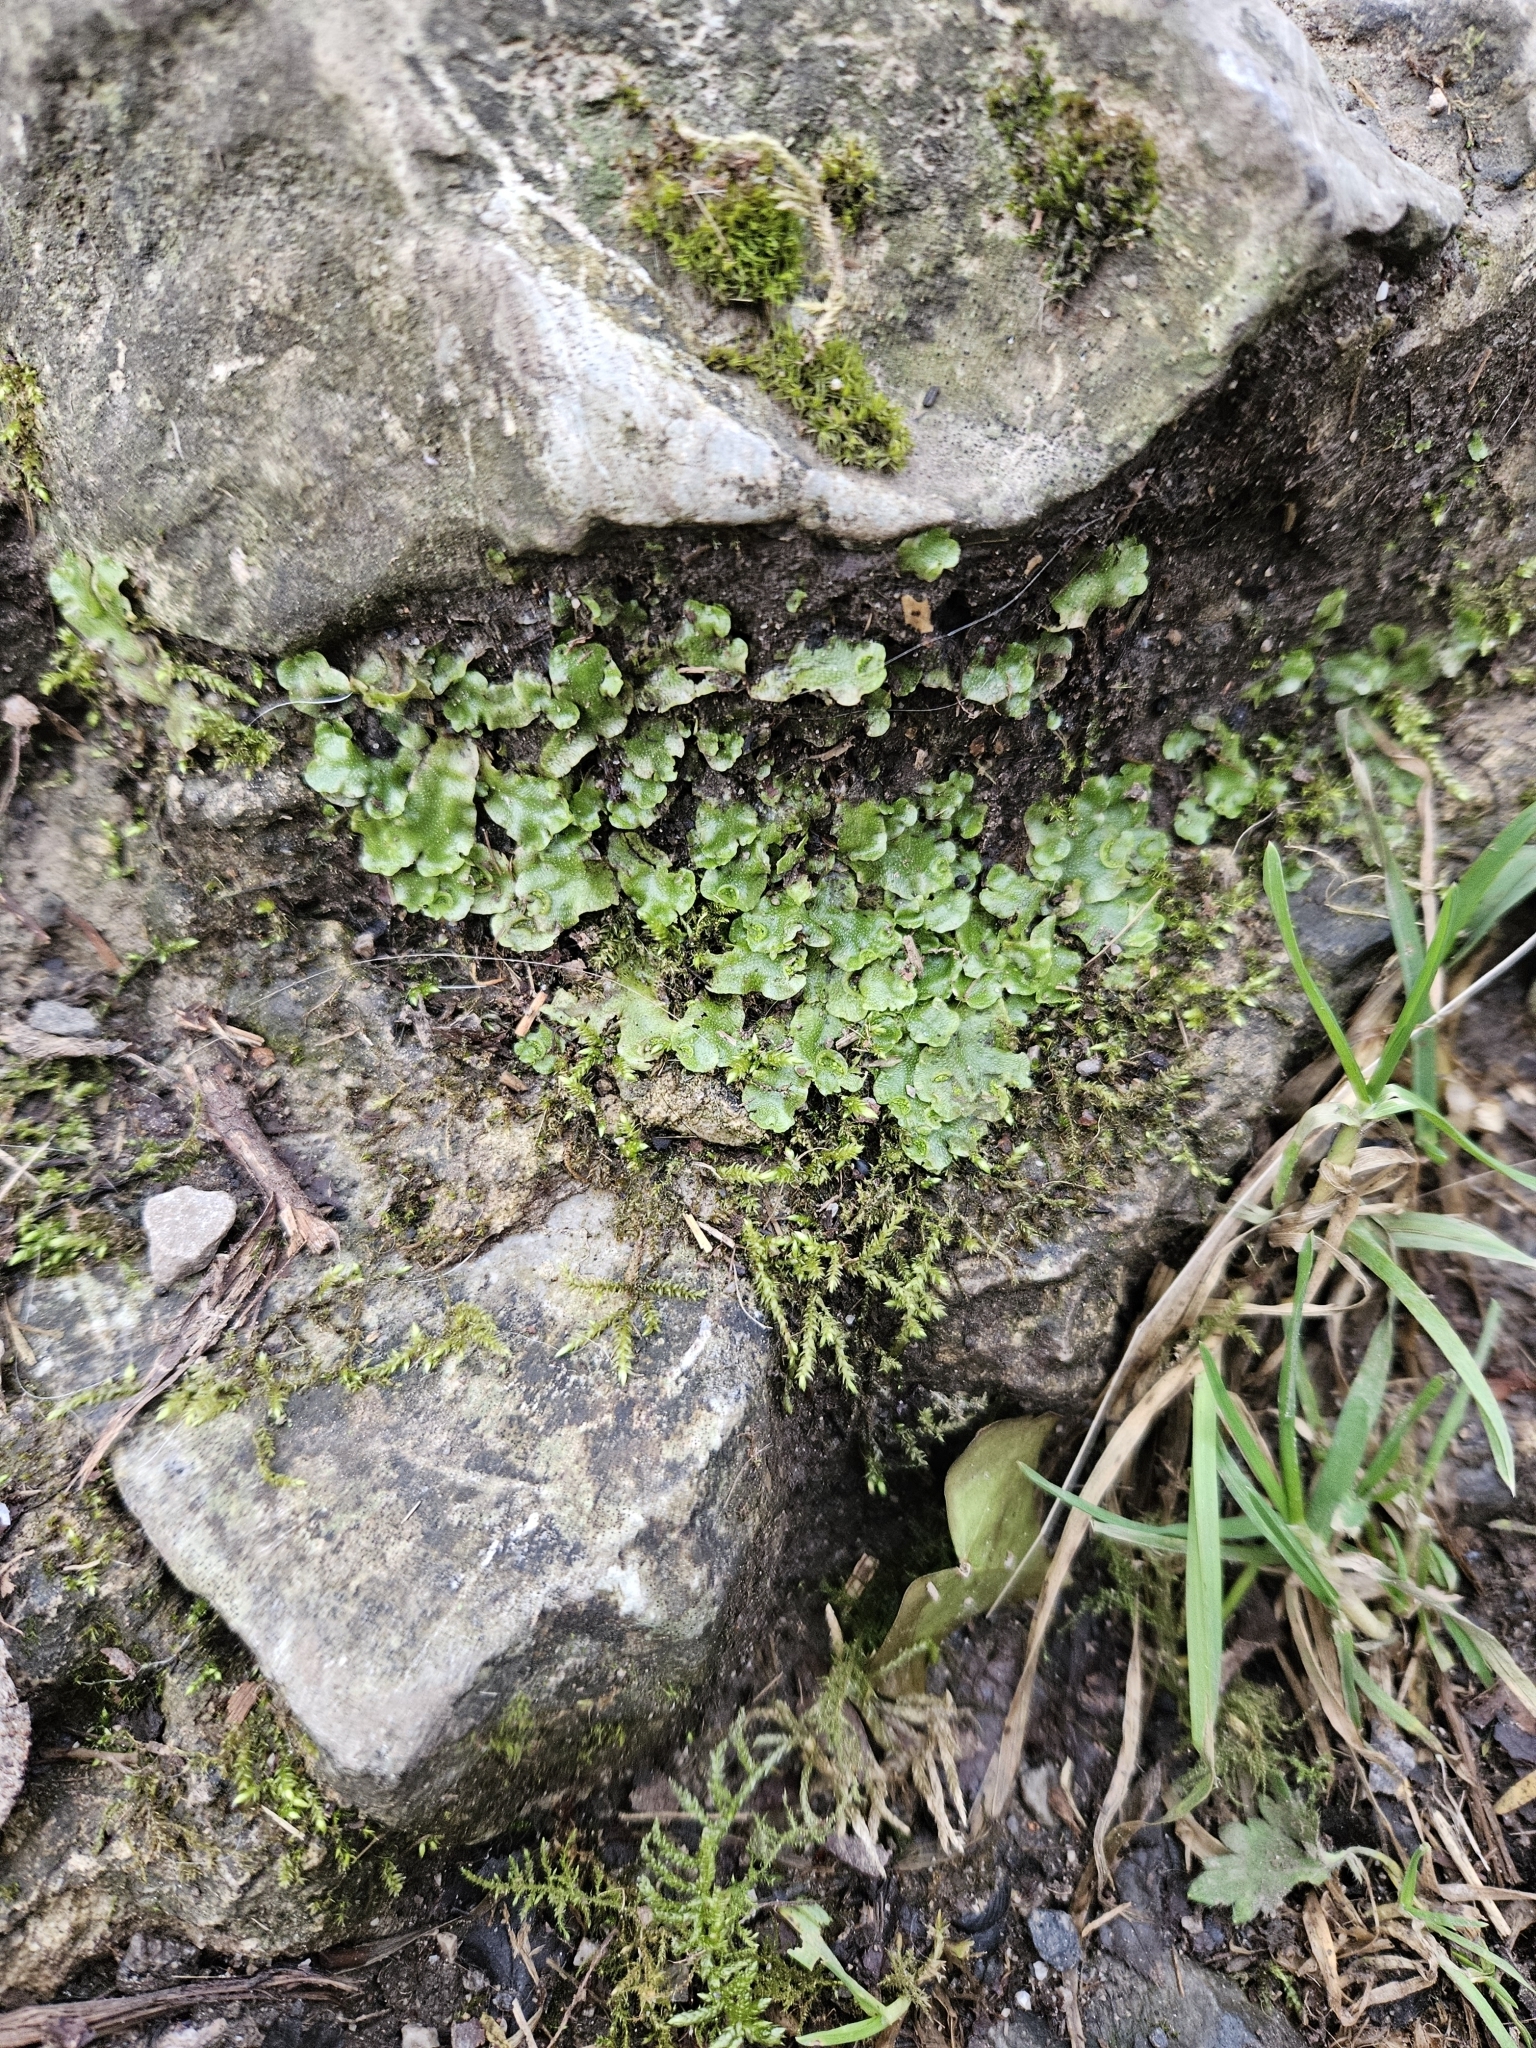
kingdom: Plantae
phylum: Marchantiophyta
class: Marchantiopsida
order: Lunulariales
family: Lunulariaceae
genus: Lunularia
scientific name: Lunularia cruciata
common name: Crescent-cup liverwort
